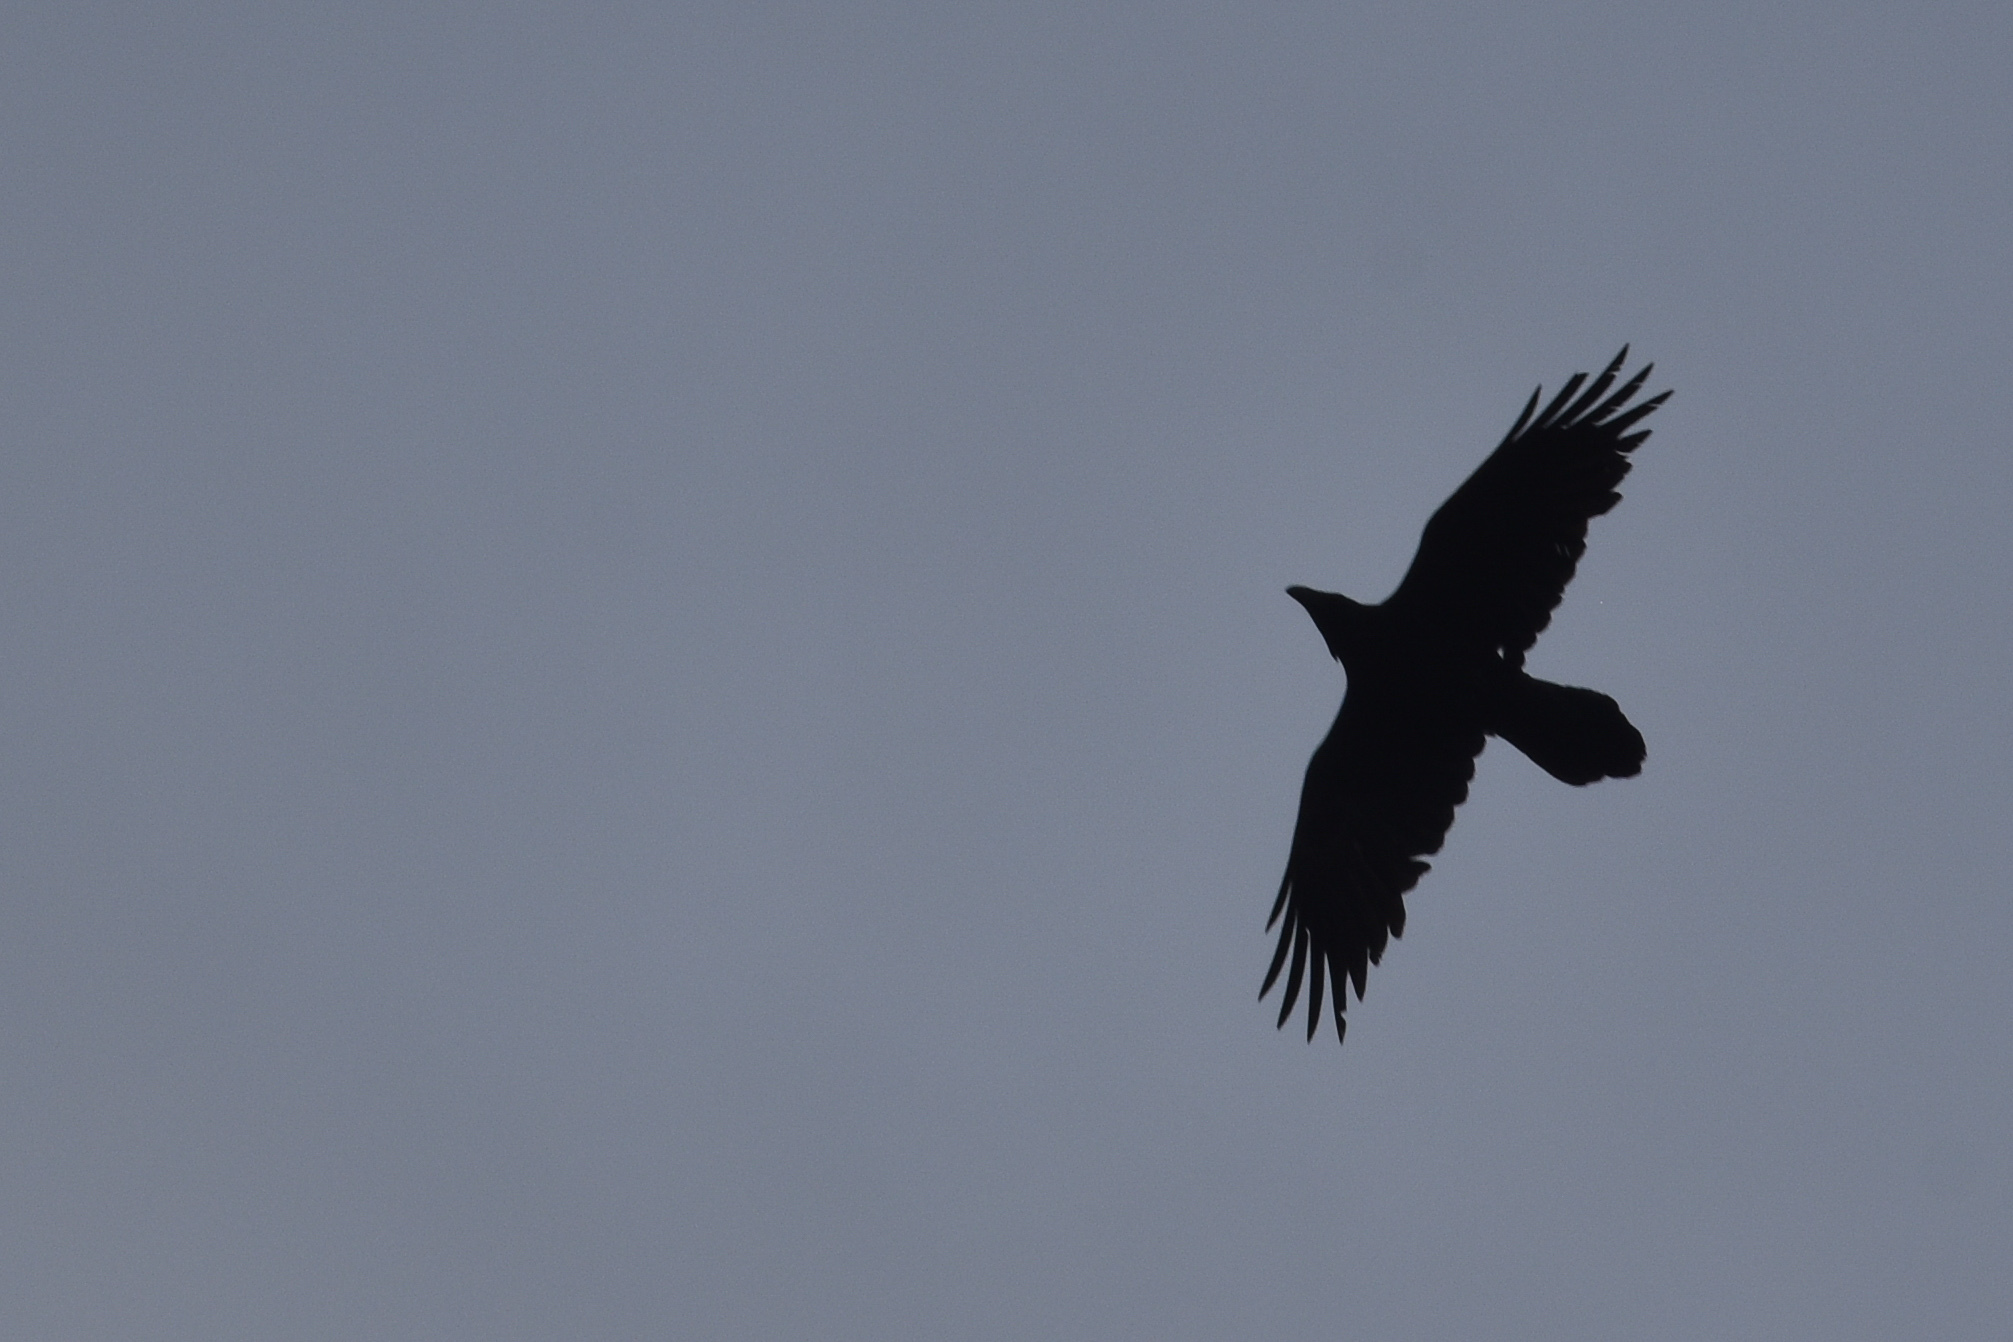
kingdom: Animalia
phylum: Chordata
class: Aves
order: Passeriformes
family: Corvidae
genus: Corvus
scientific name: Corvus corax
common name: Common raven
